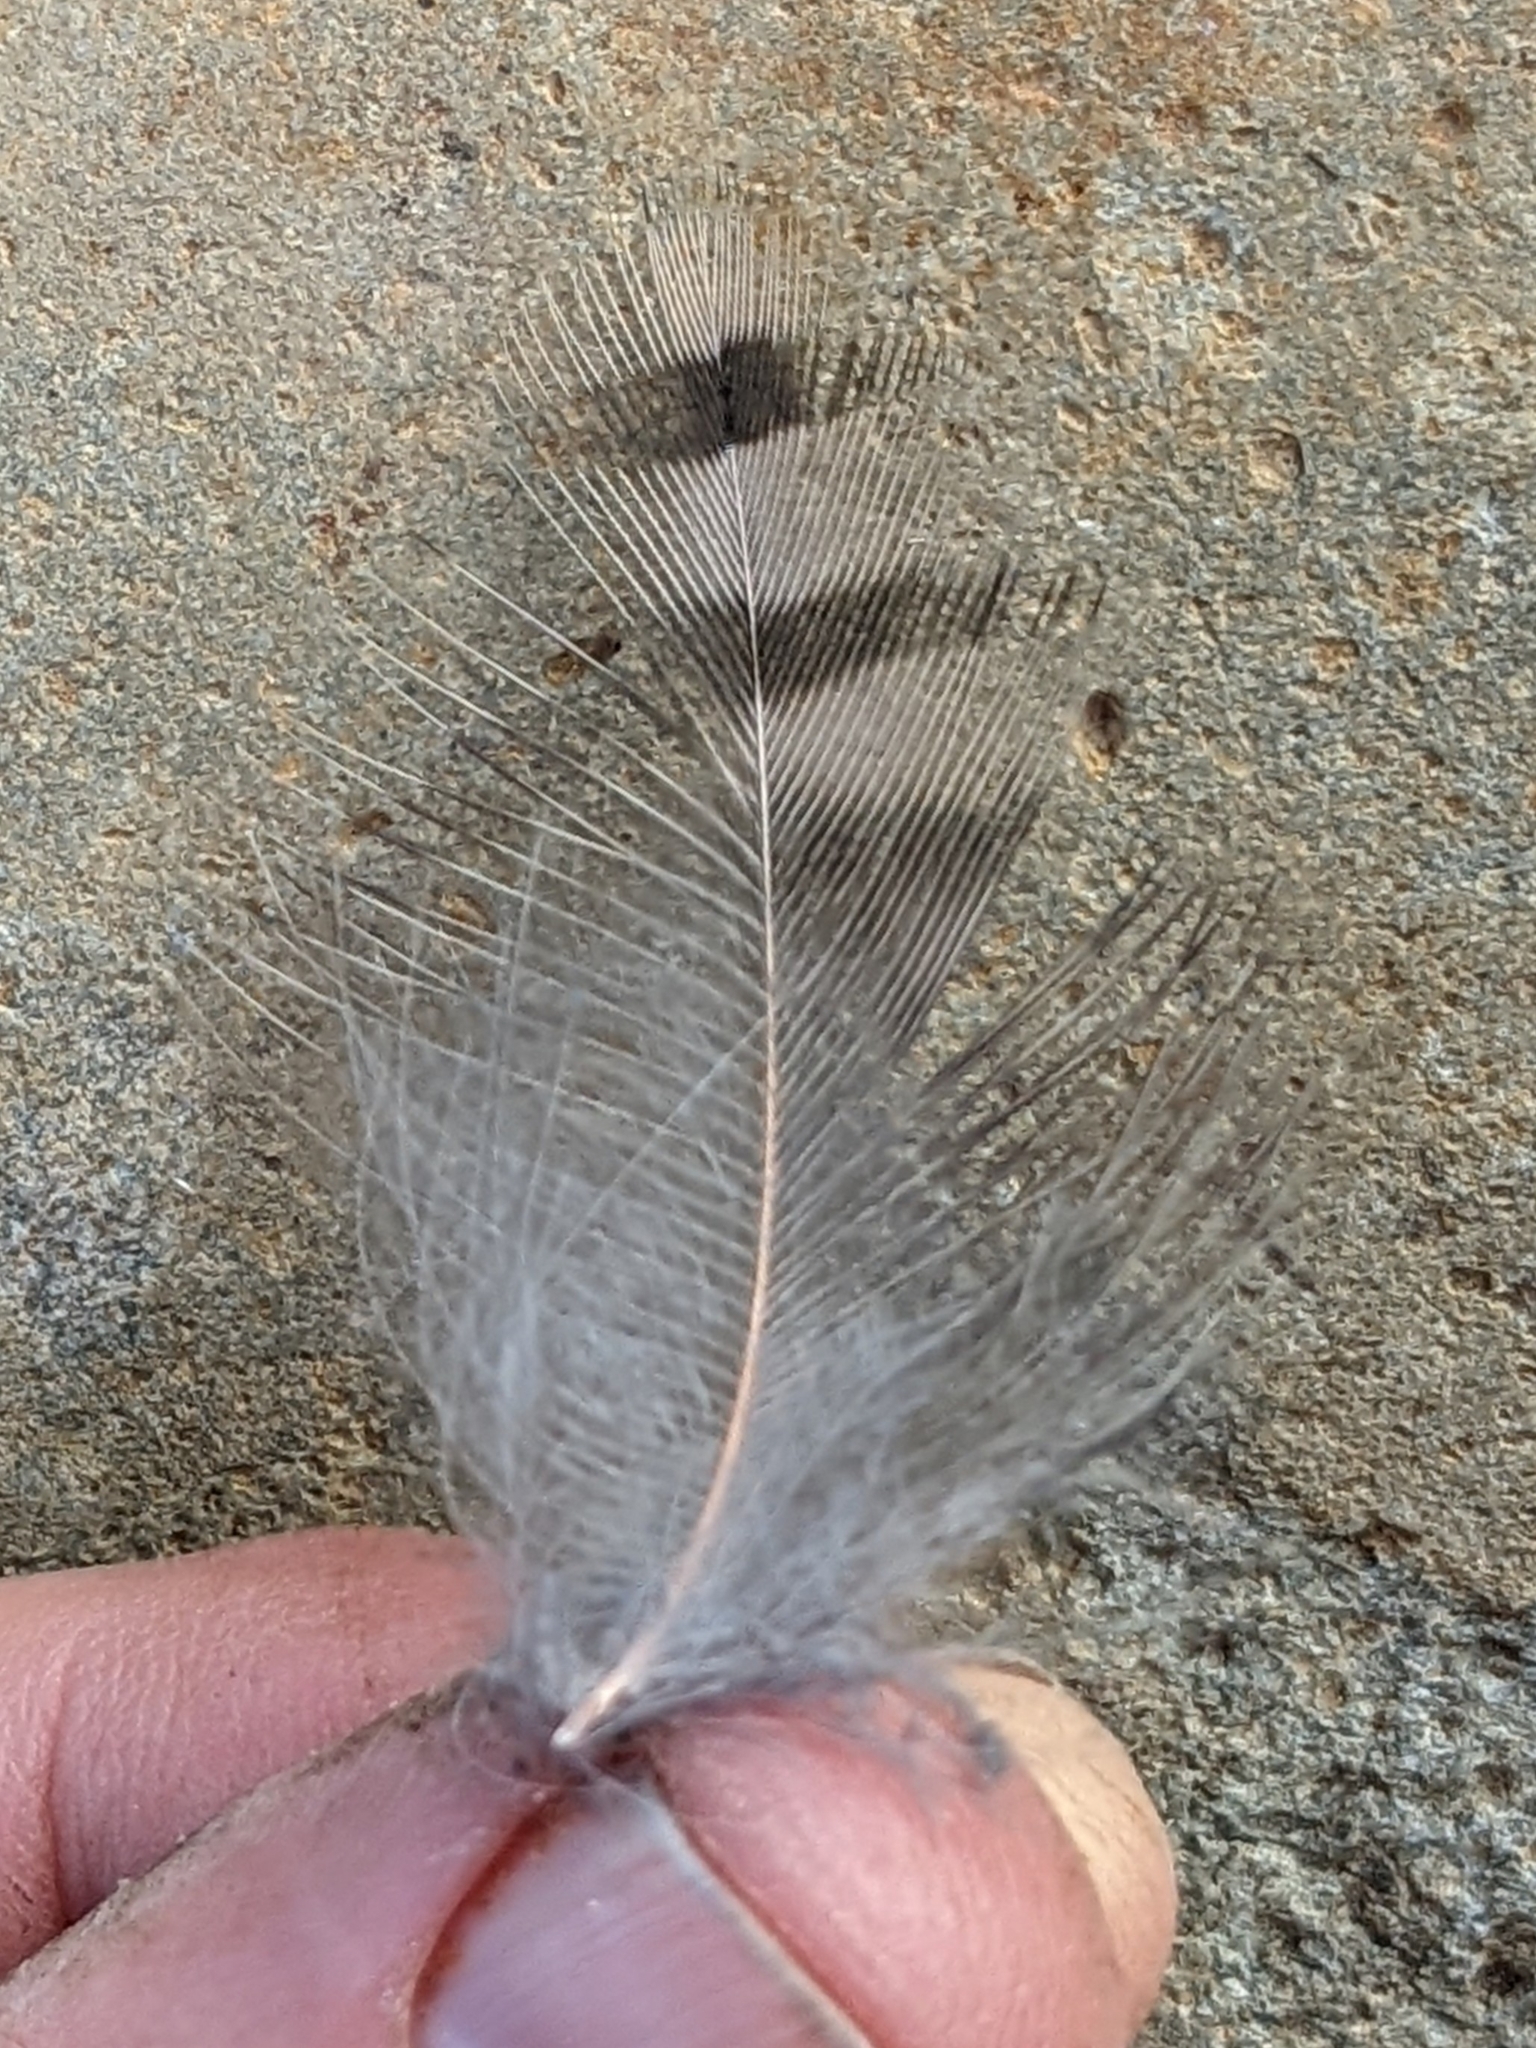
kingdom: Animalia
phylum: Chordata
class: Aves
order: Piciformes
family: Picidae
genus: Colaptes
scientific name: Colaptes auratus
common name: Northern flicker
